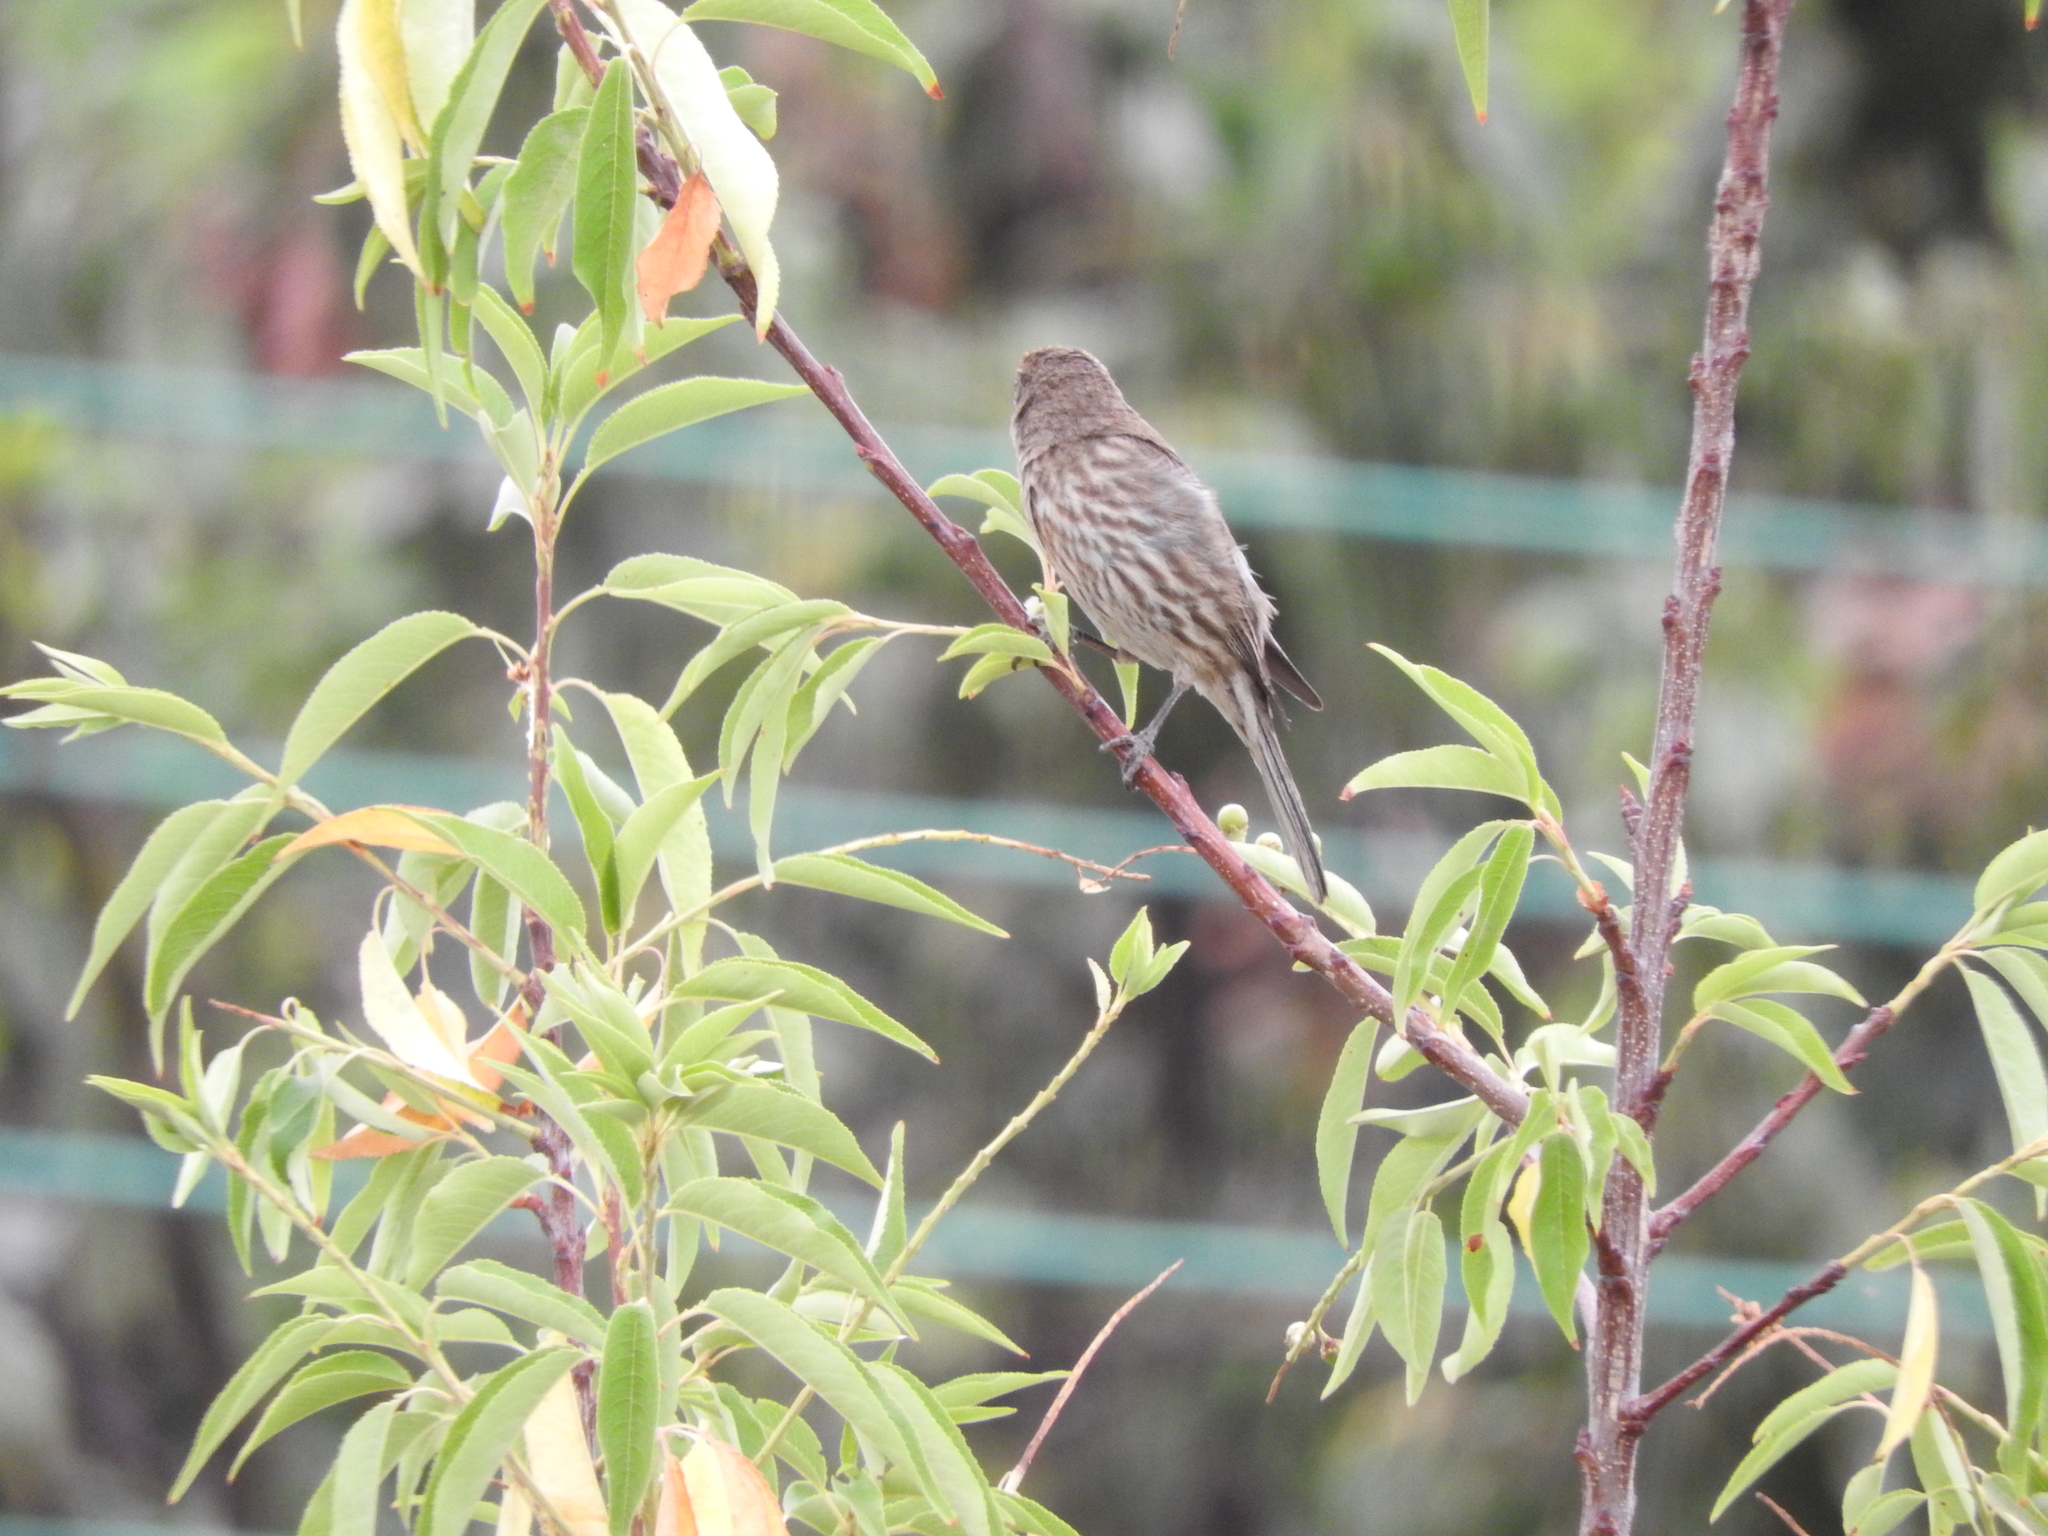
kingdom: Animalia
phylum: Chordata
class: Aves
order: Passeriformes
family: Fringillidae
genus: Haemorhous
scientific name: Haemorhous mexicanus
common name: House finch
